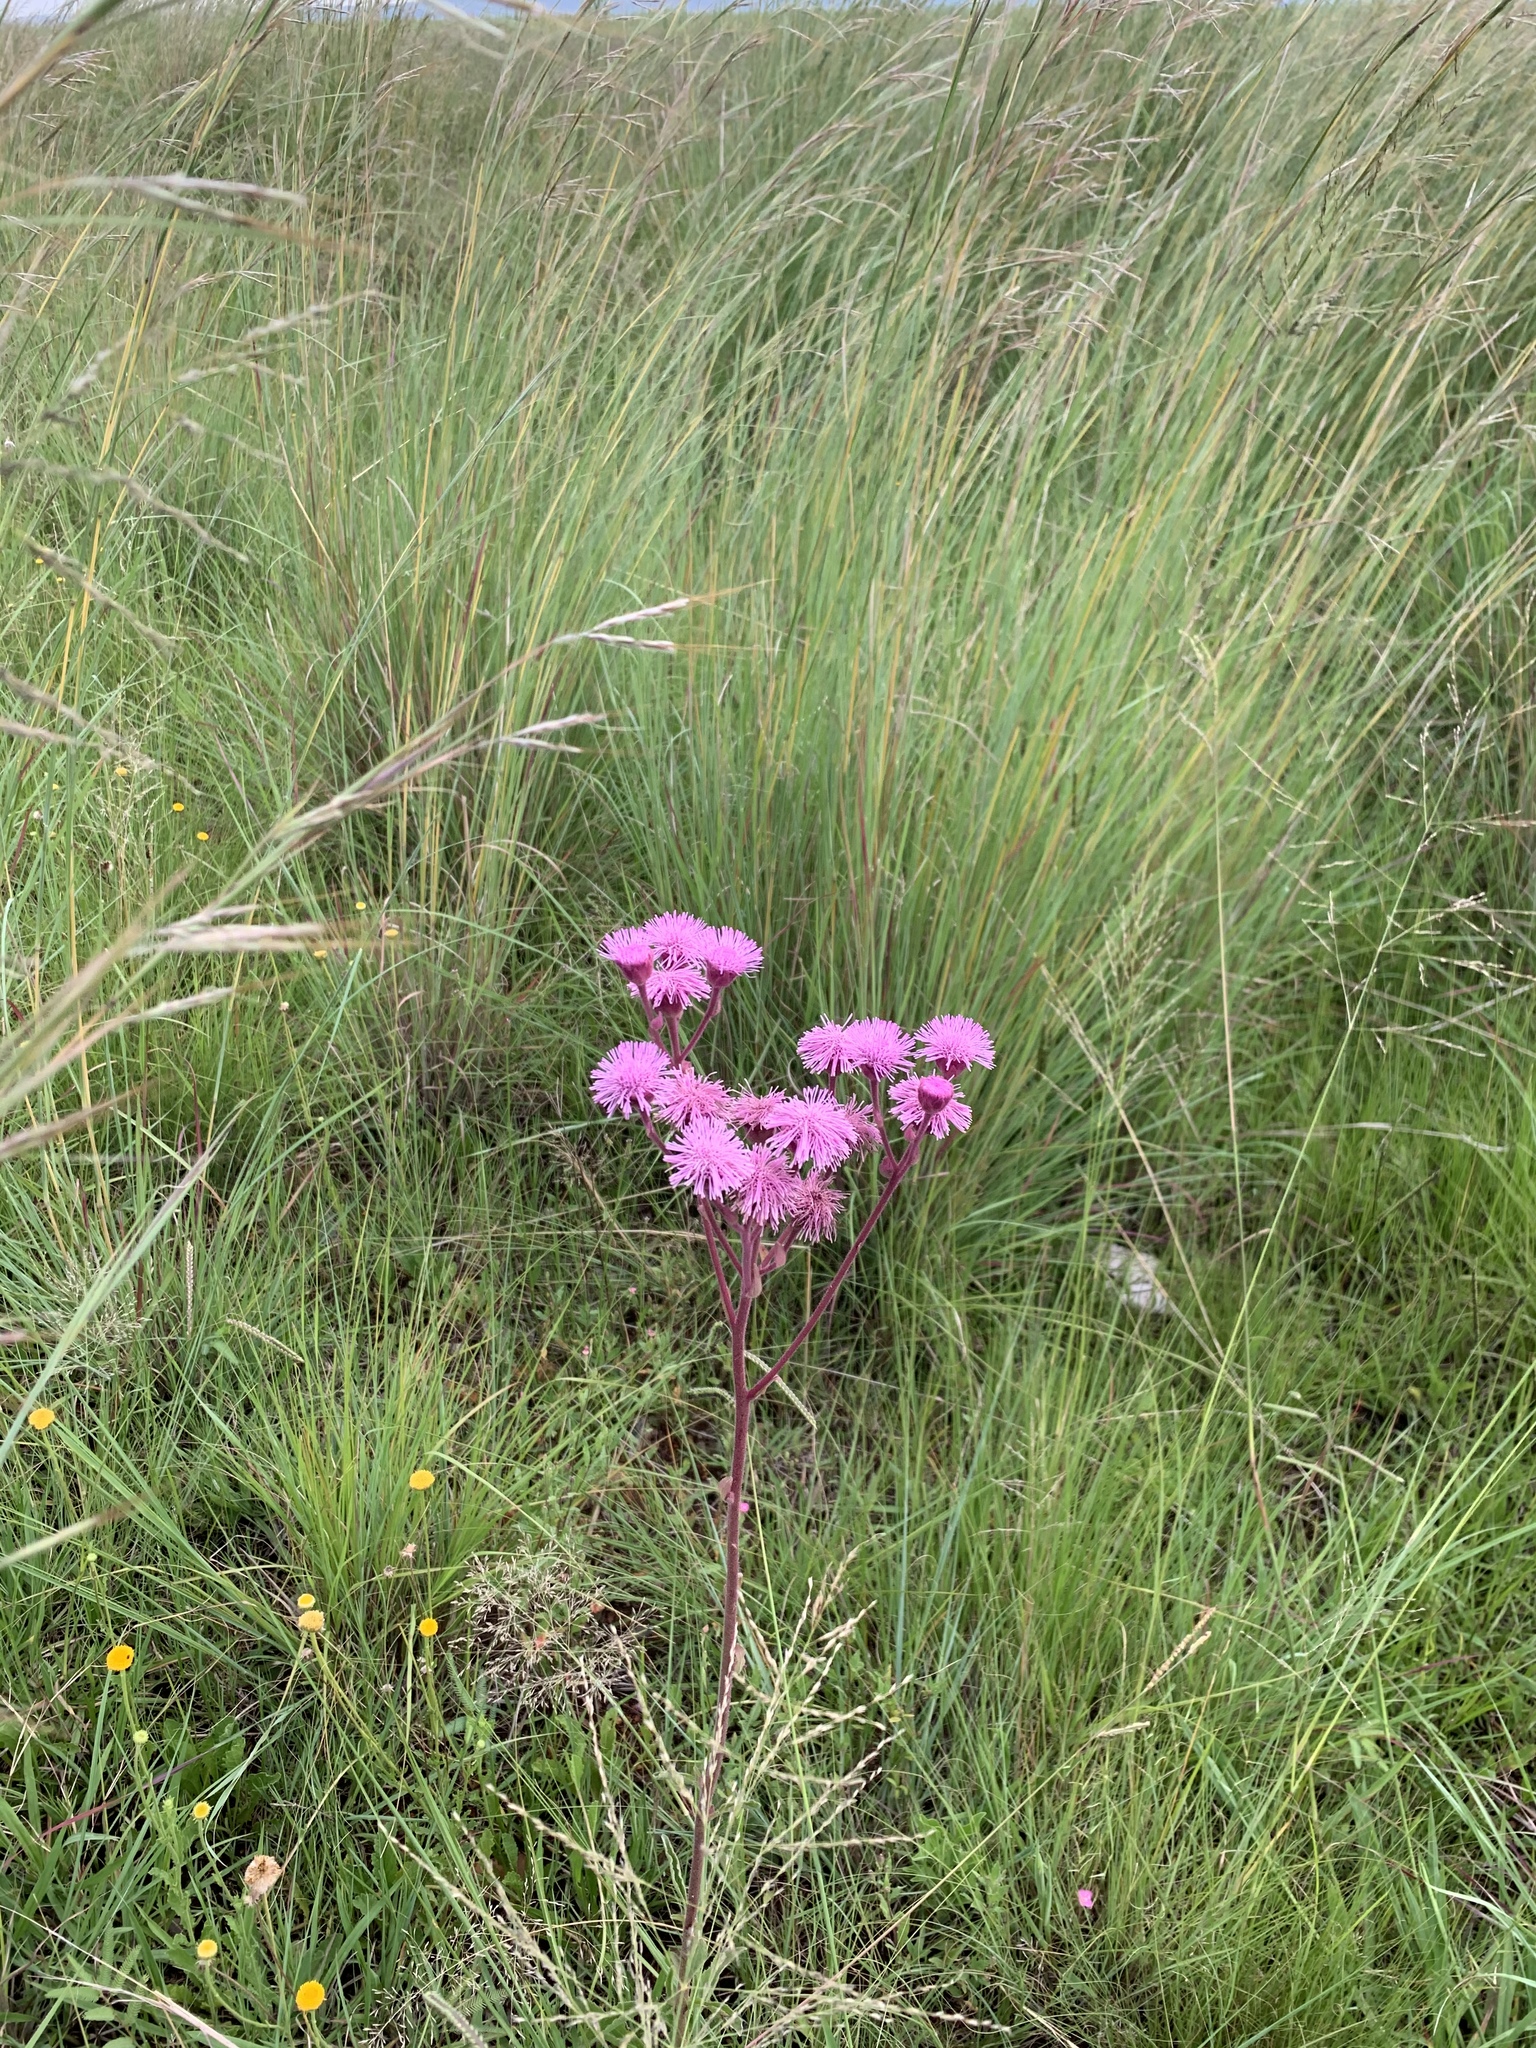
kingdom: Plantae
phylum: Tracheophyta
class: Magnoliopsida
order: Asterales
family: Asteraceae
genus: Campuloclinium
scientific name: Campuloclinium macrocephalum
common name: Pompomweed
